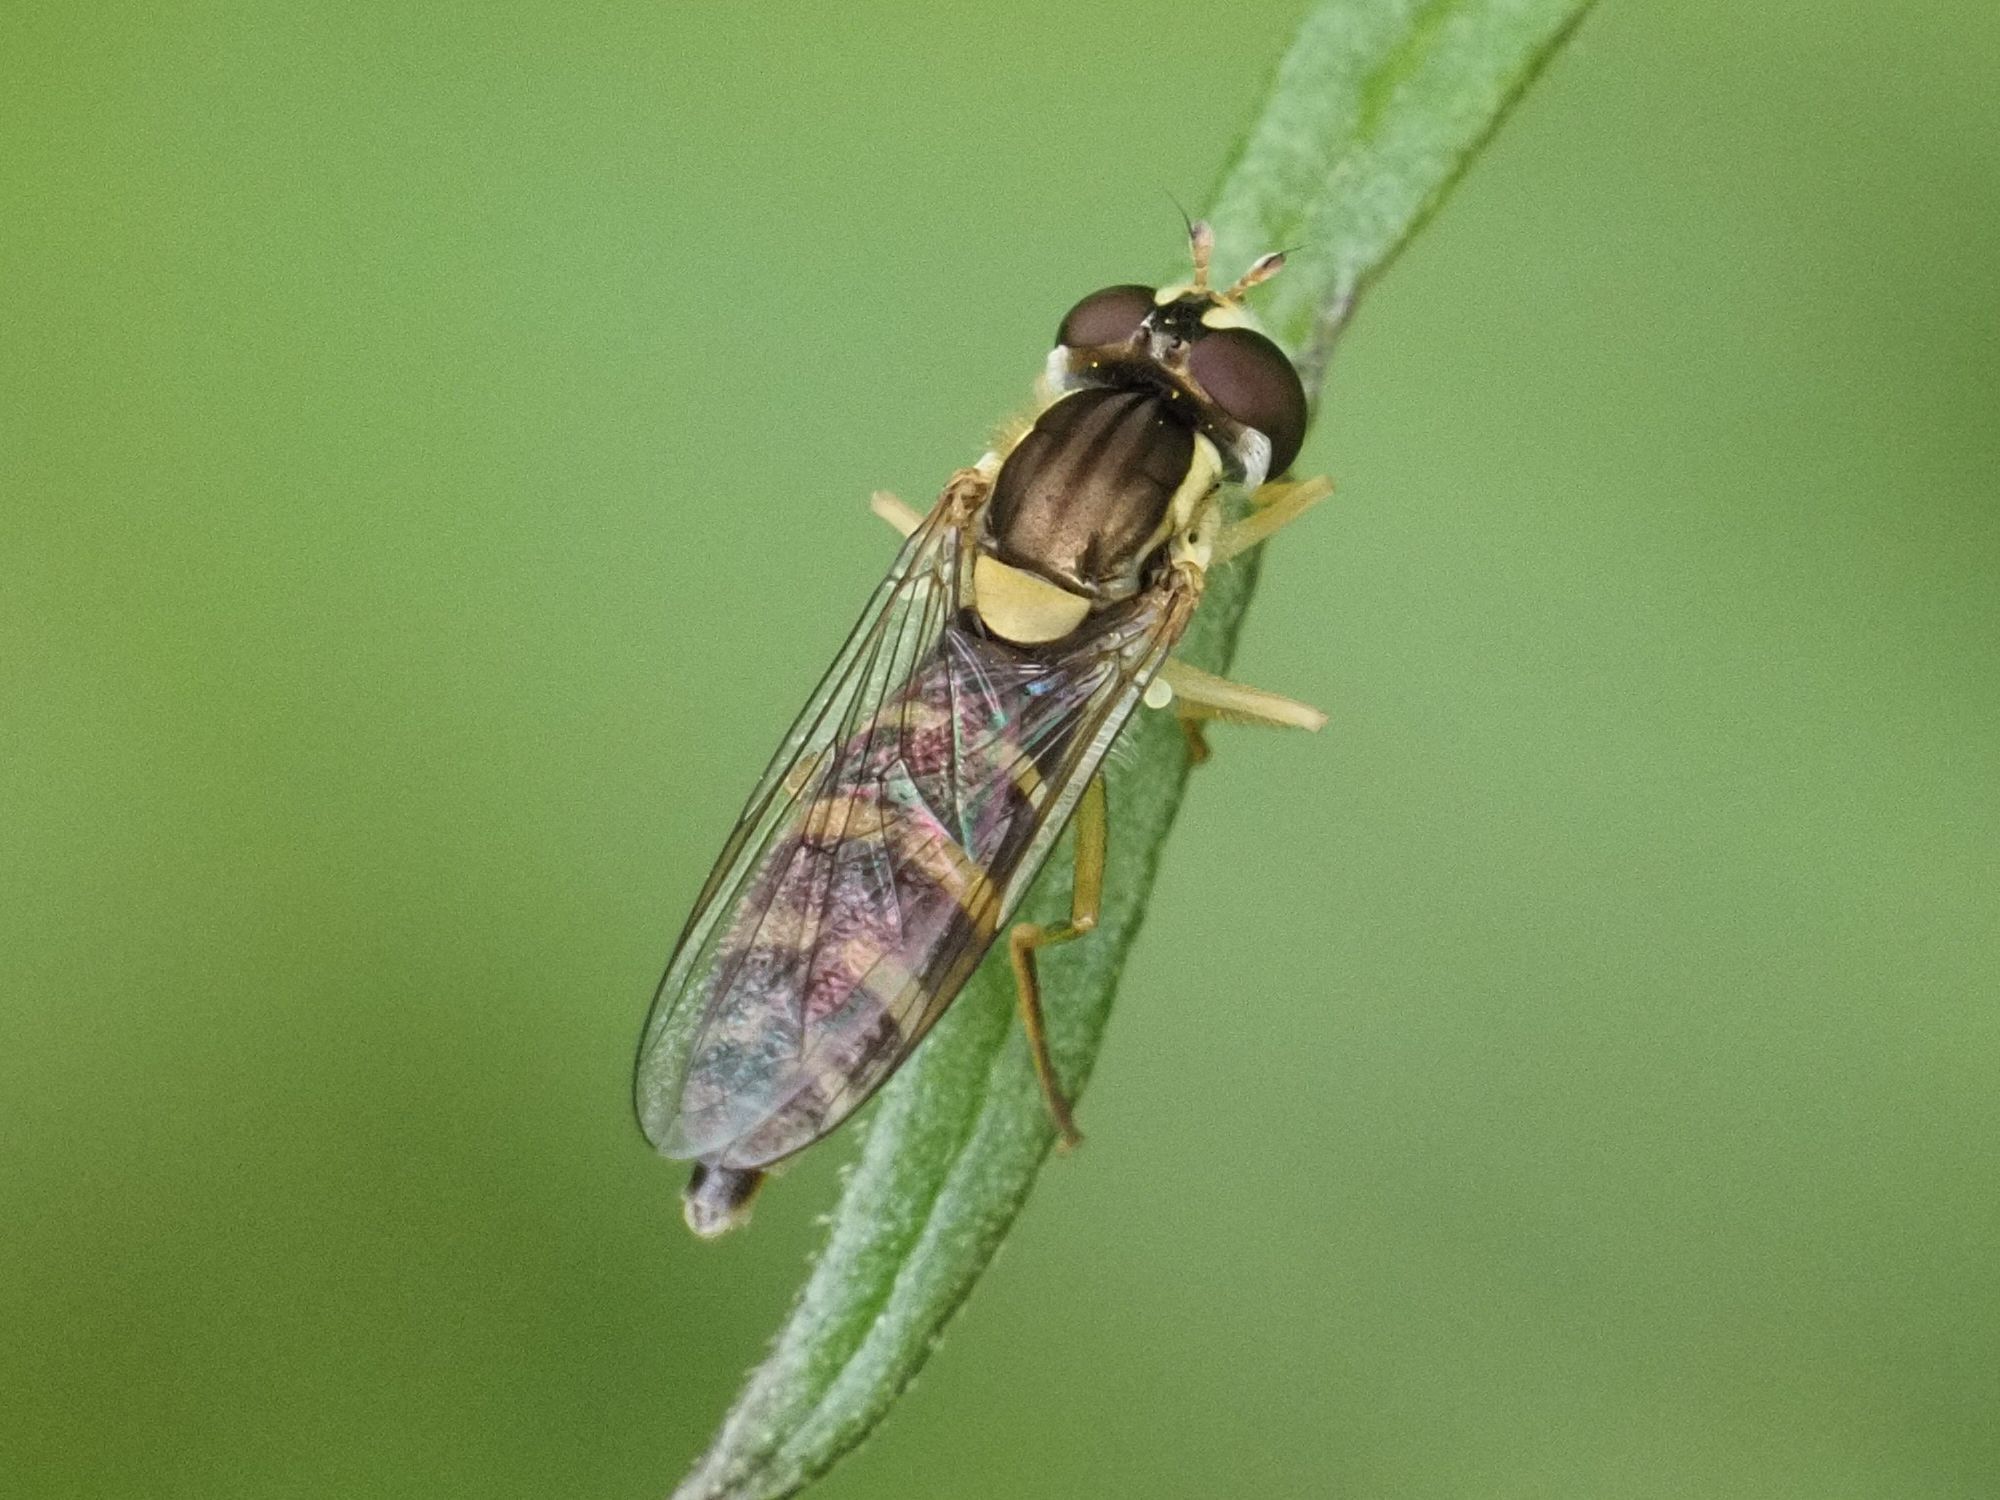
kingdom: Animalia
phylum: Arthropoda
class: Insecta
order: Diptera
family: Syrphidae
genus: Sphaerophoria
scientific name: Sphaerophoria
